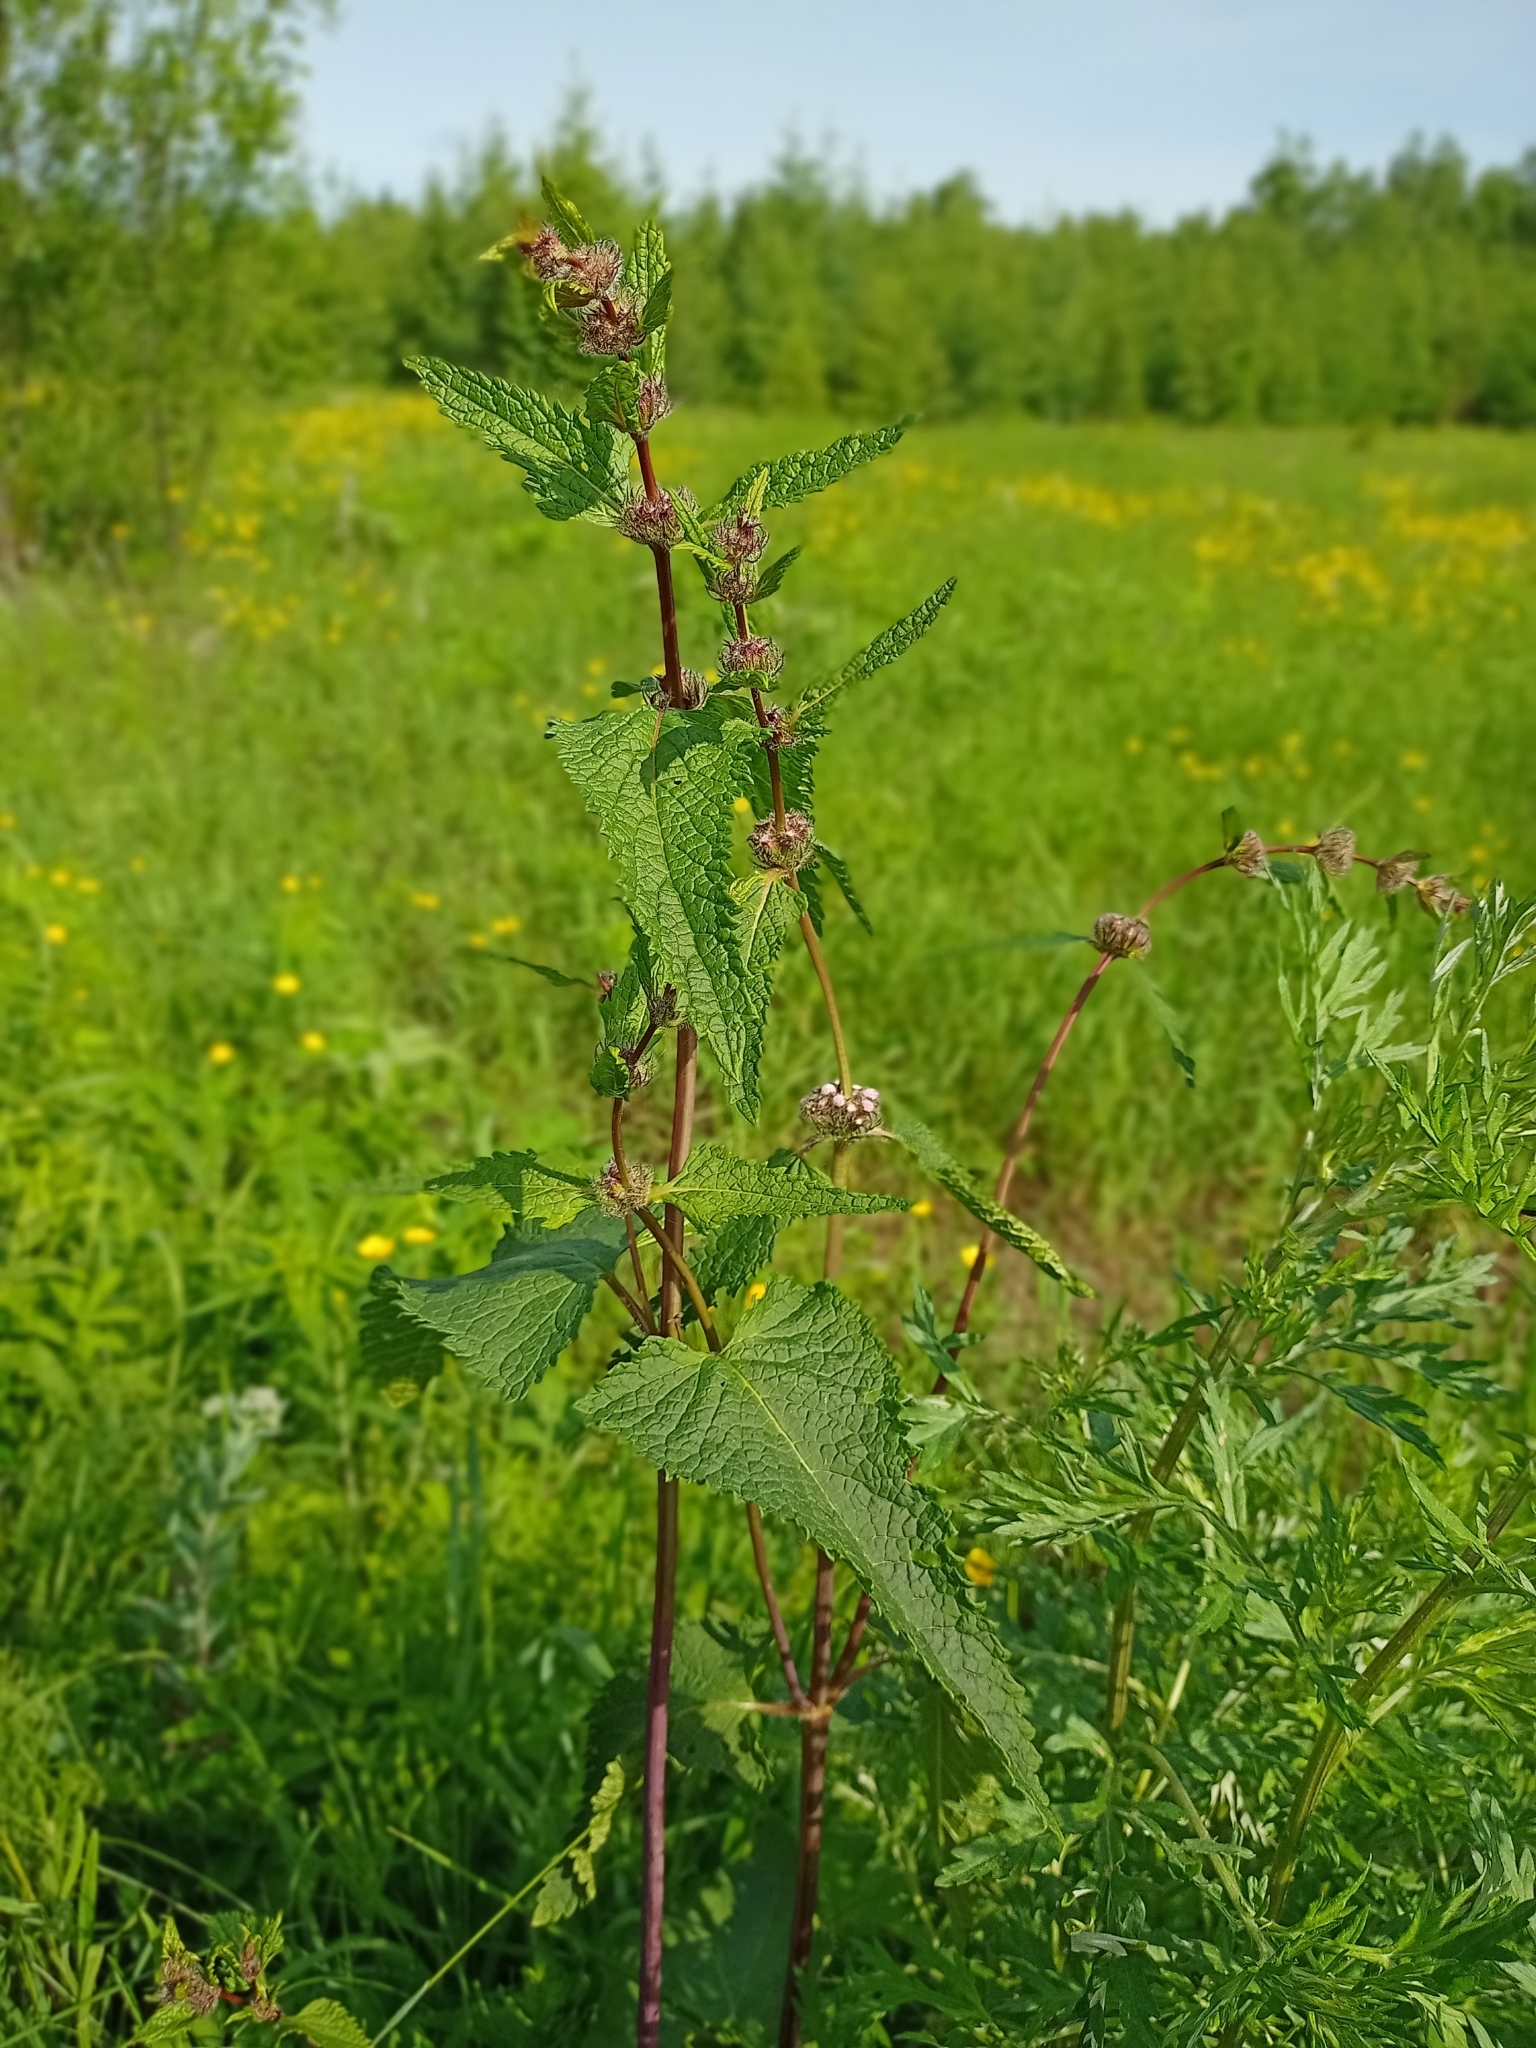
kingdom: Plantae
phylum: Tracheophyta
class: Magnoliopsida
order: Lamiales
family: Lamiaceae
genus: Phlomoides
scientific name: Phlomoides tuberosa
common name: Tuberous jerusalem sage
